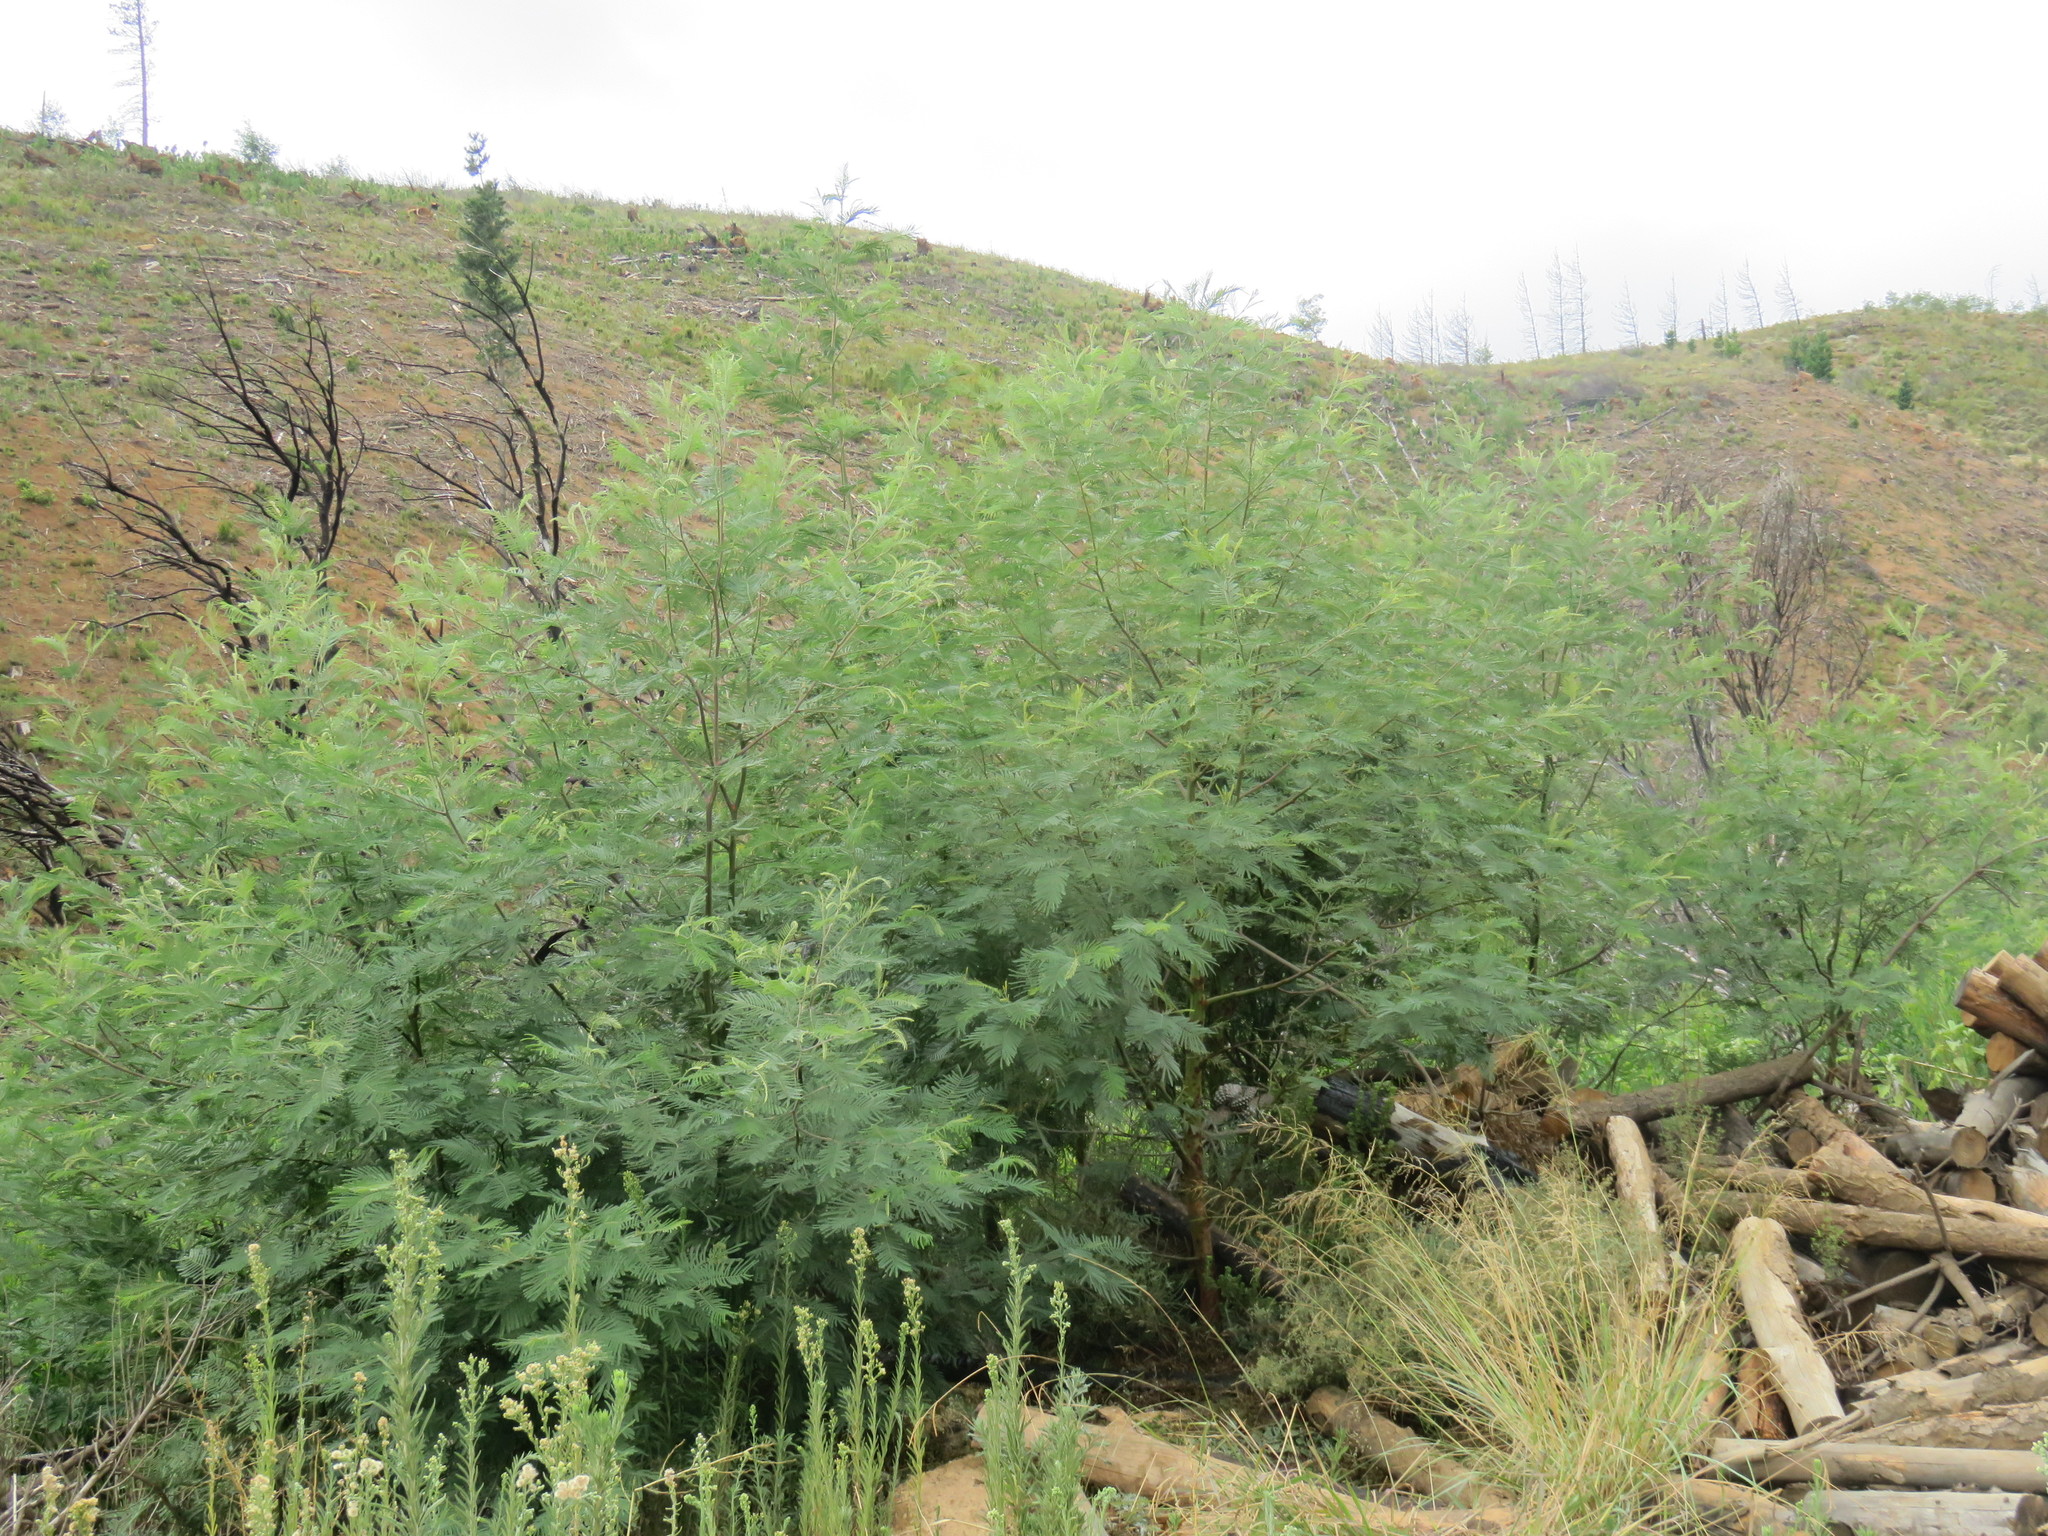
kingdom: Plantae
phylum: Tracheophyta
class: Magnoliopsida
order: Fabales
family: Fabaceae
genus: Acacia
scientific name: Acacia mearnsii
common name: Black wattle
